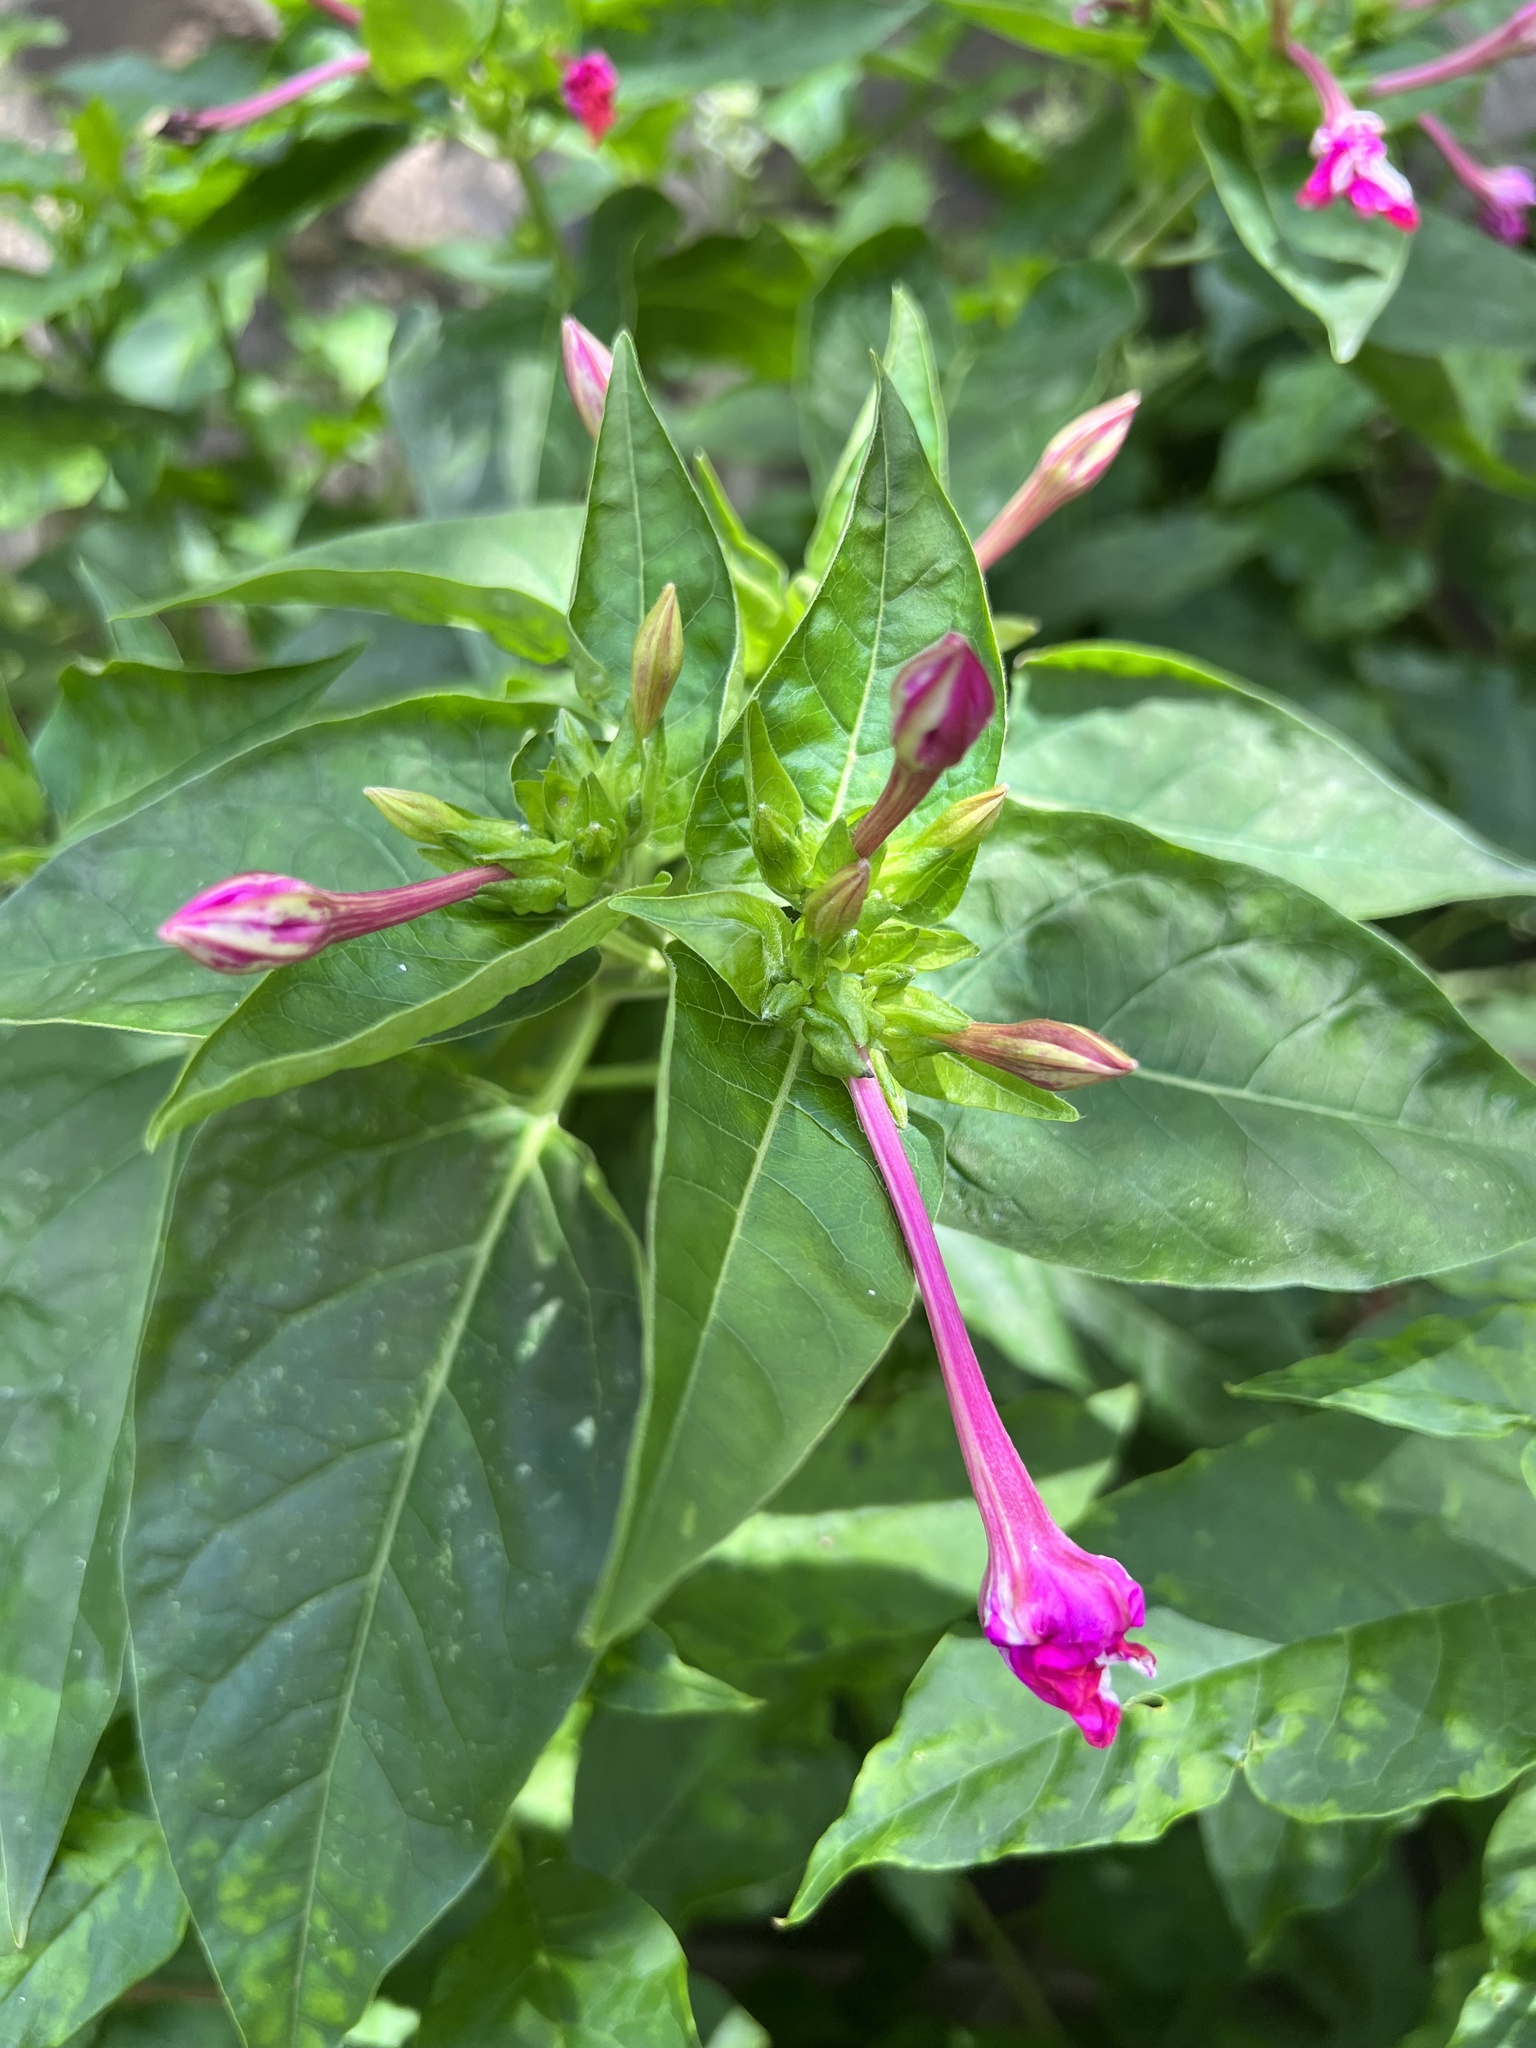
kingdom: Plantae
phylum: Tracheophyta
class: Magnoliopsida
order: Caryophyllales
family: Nyctaginaceae
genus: Mirabilis
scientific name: Mirabilis jalapa
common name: Marvel-of-peru
